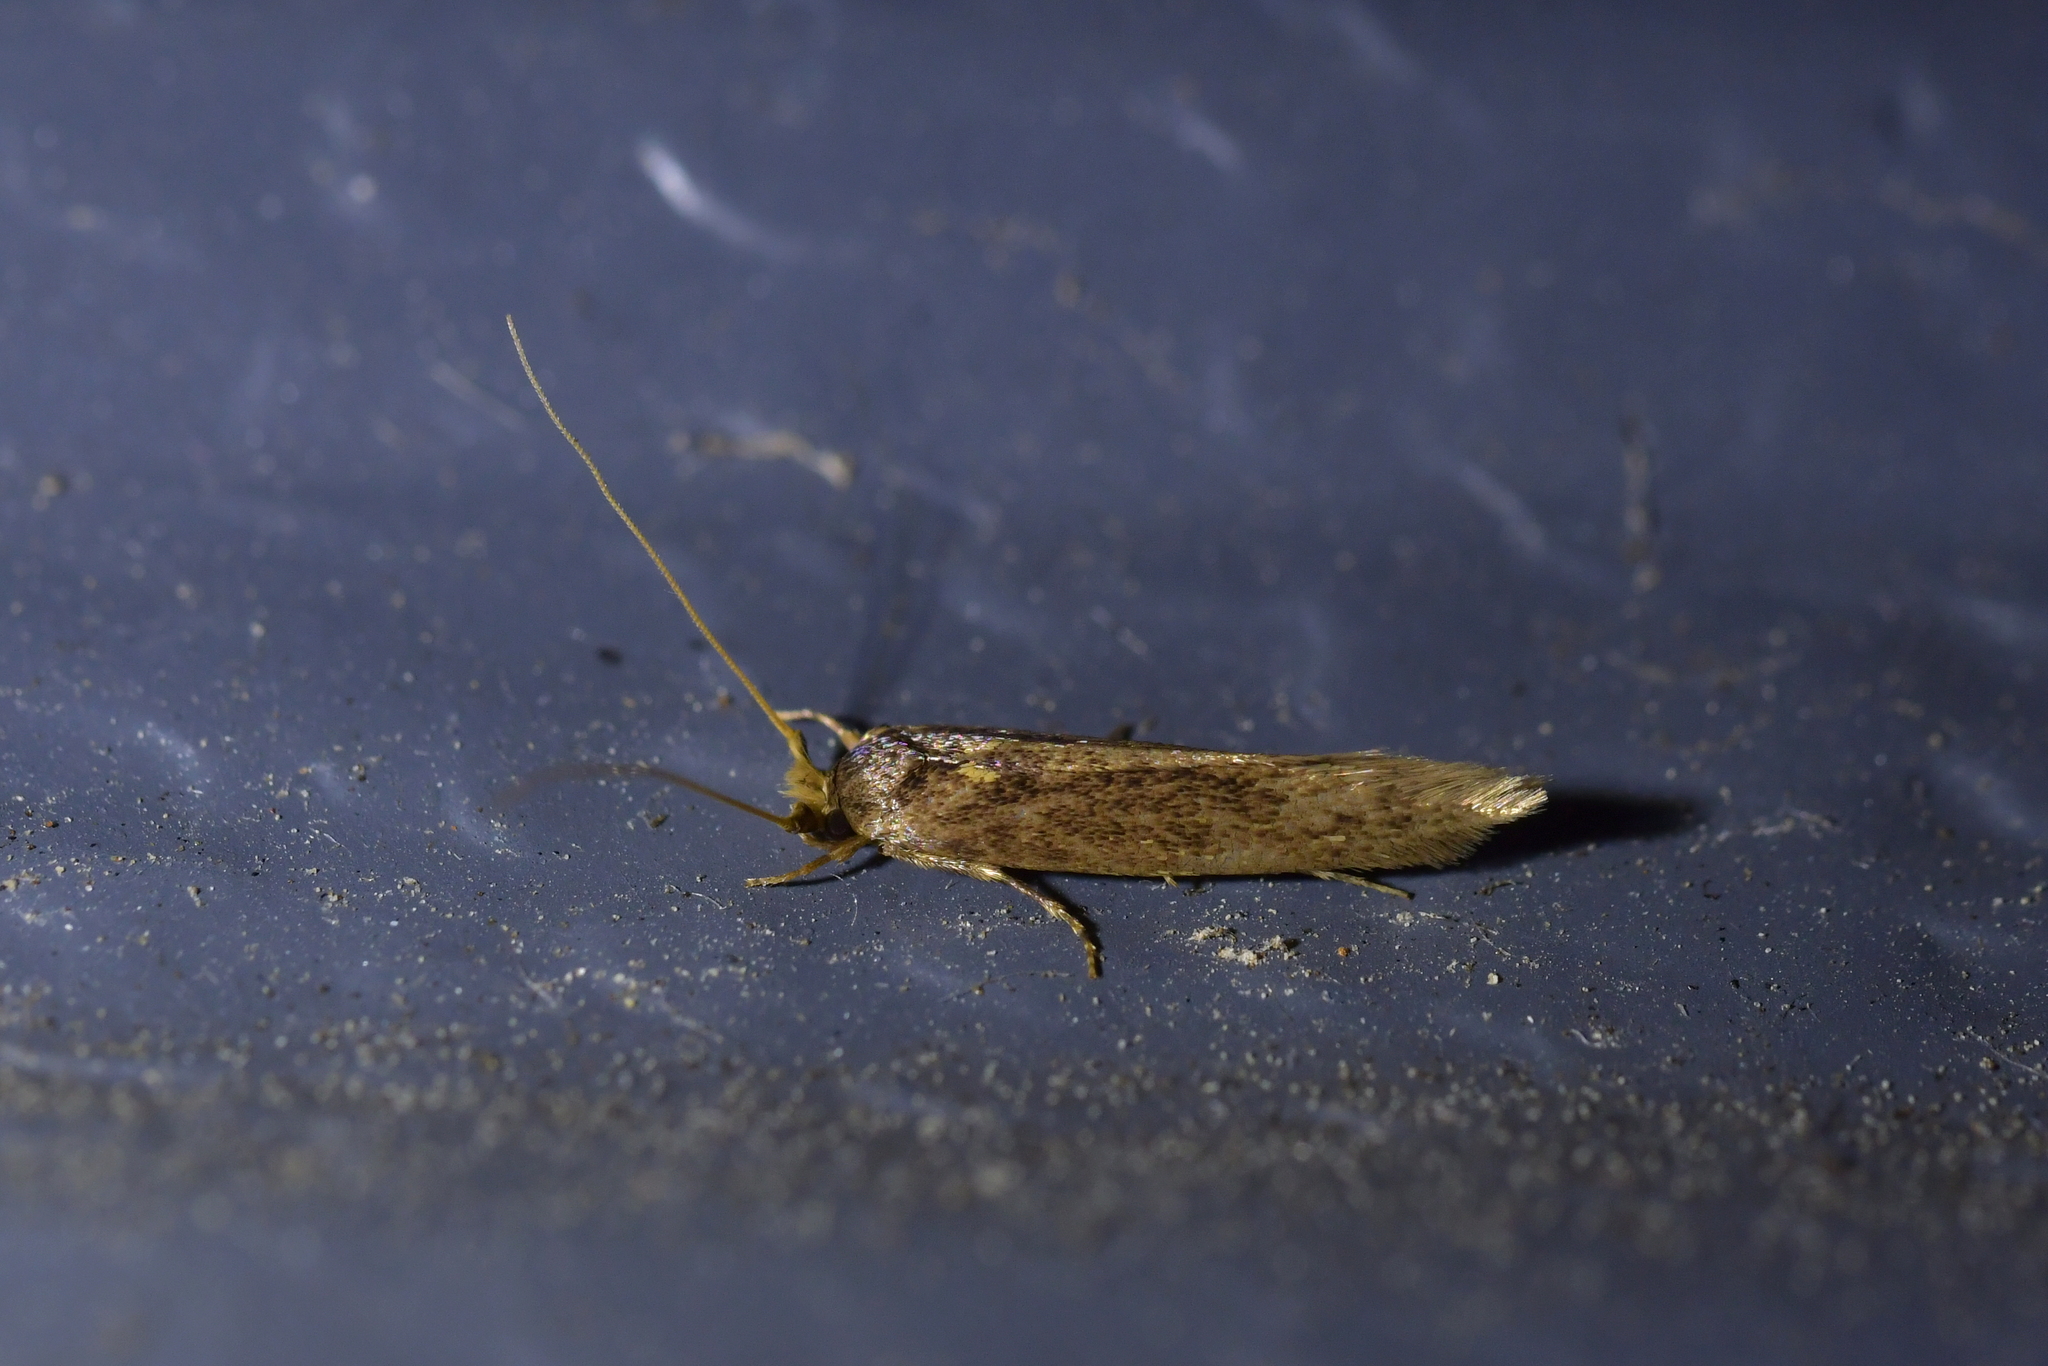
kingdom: Animalia
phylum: Arthropoda
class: Insecta
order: Lepidoptera
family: Tineidae
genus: Opogona
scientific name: Opogona omoscopa
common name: Moth
